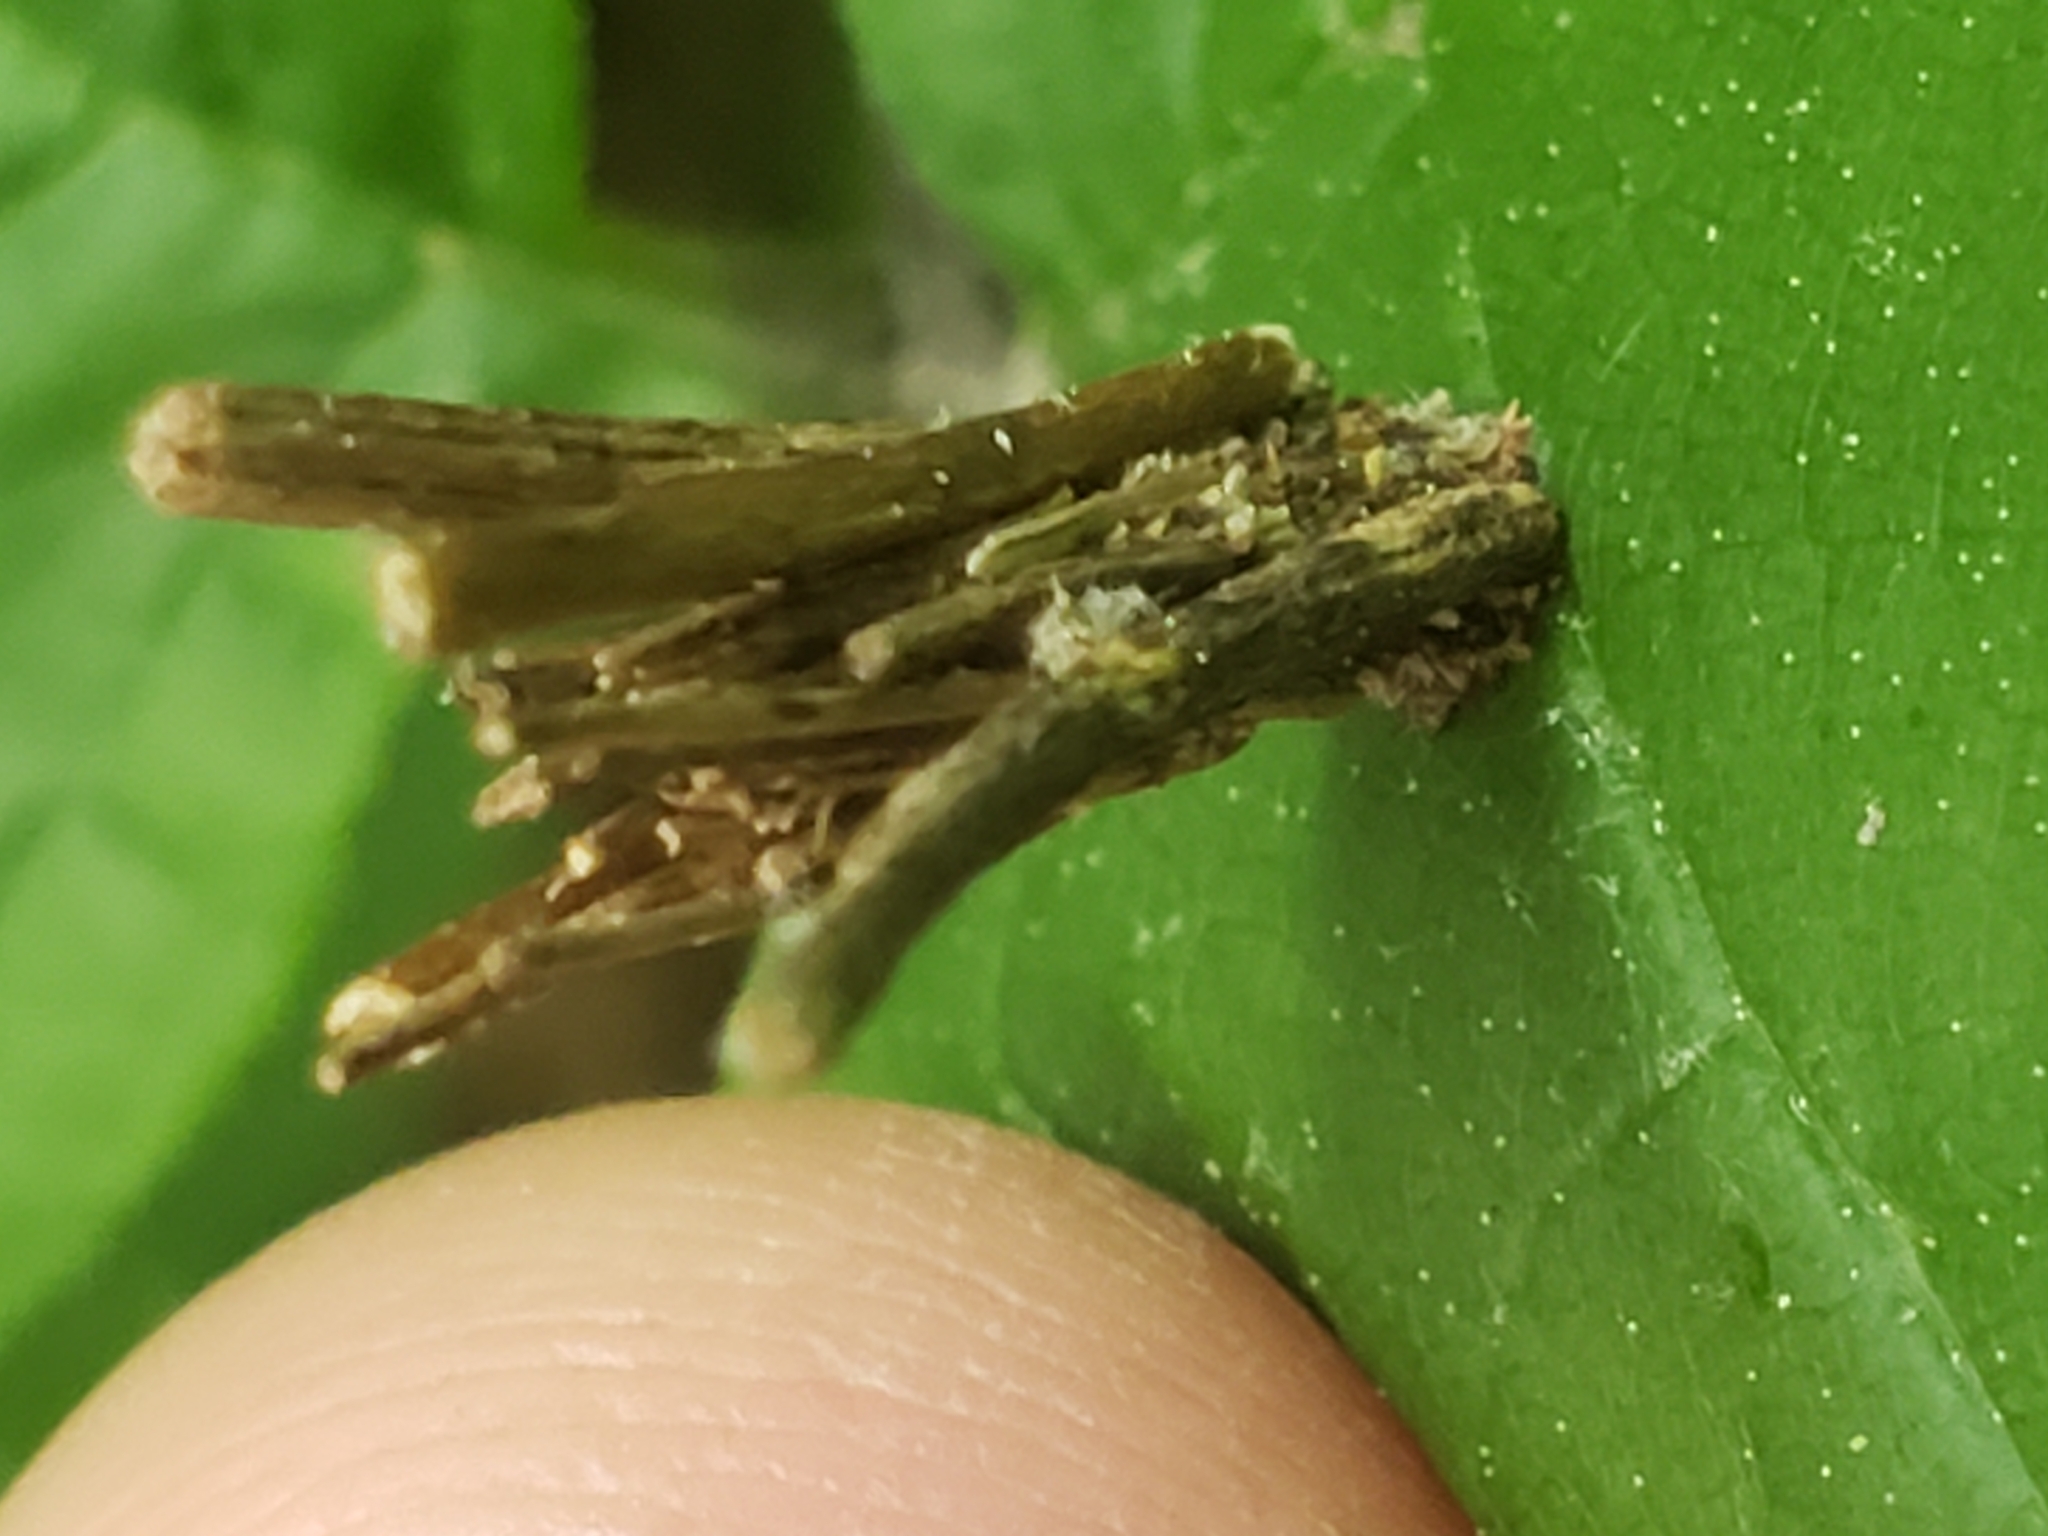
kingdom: Animalia
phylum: Arthropoda
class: Insecta
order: Lepidoptera
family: Psychidae
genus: Psyche
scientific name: Psyche casta
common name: Common sweep
